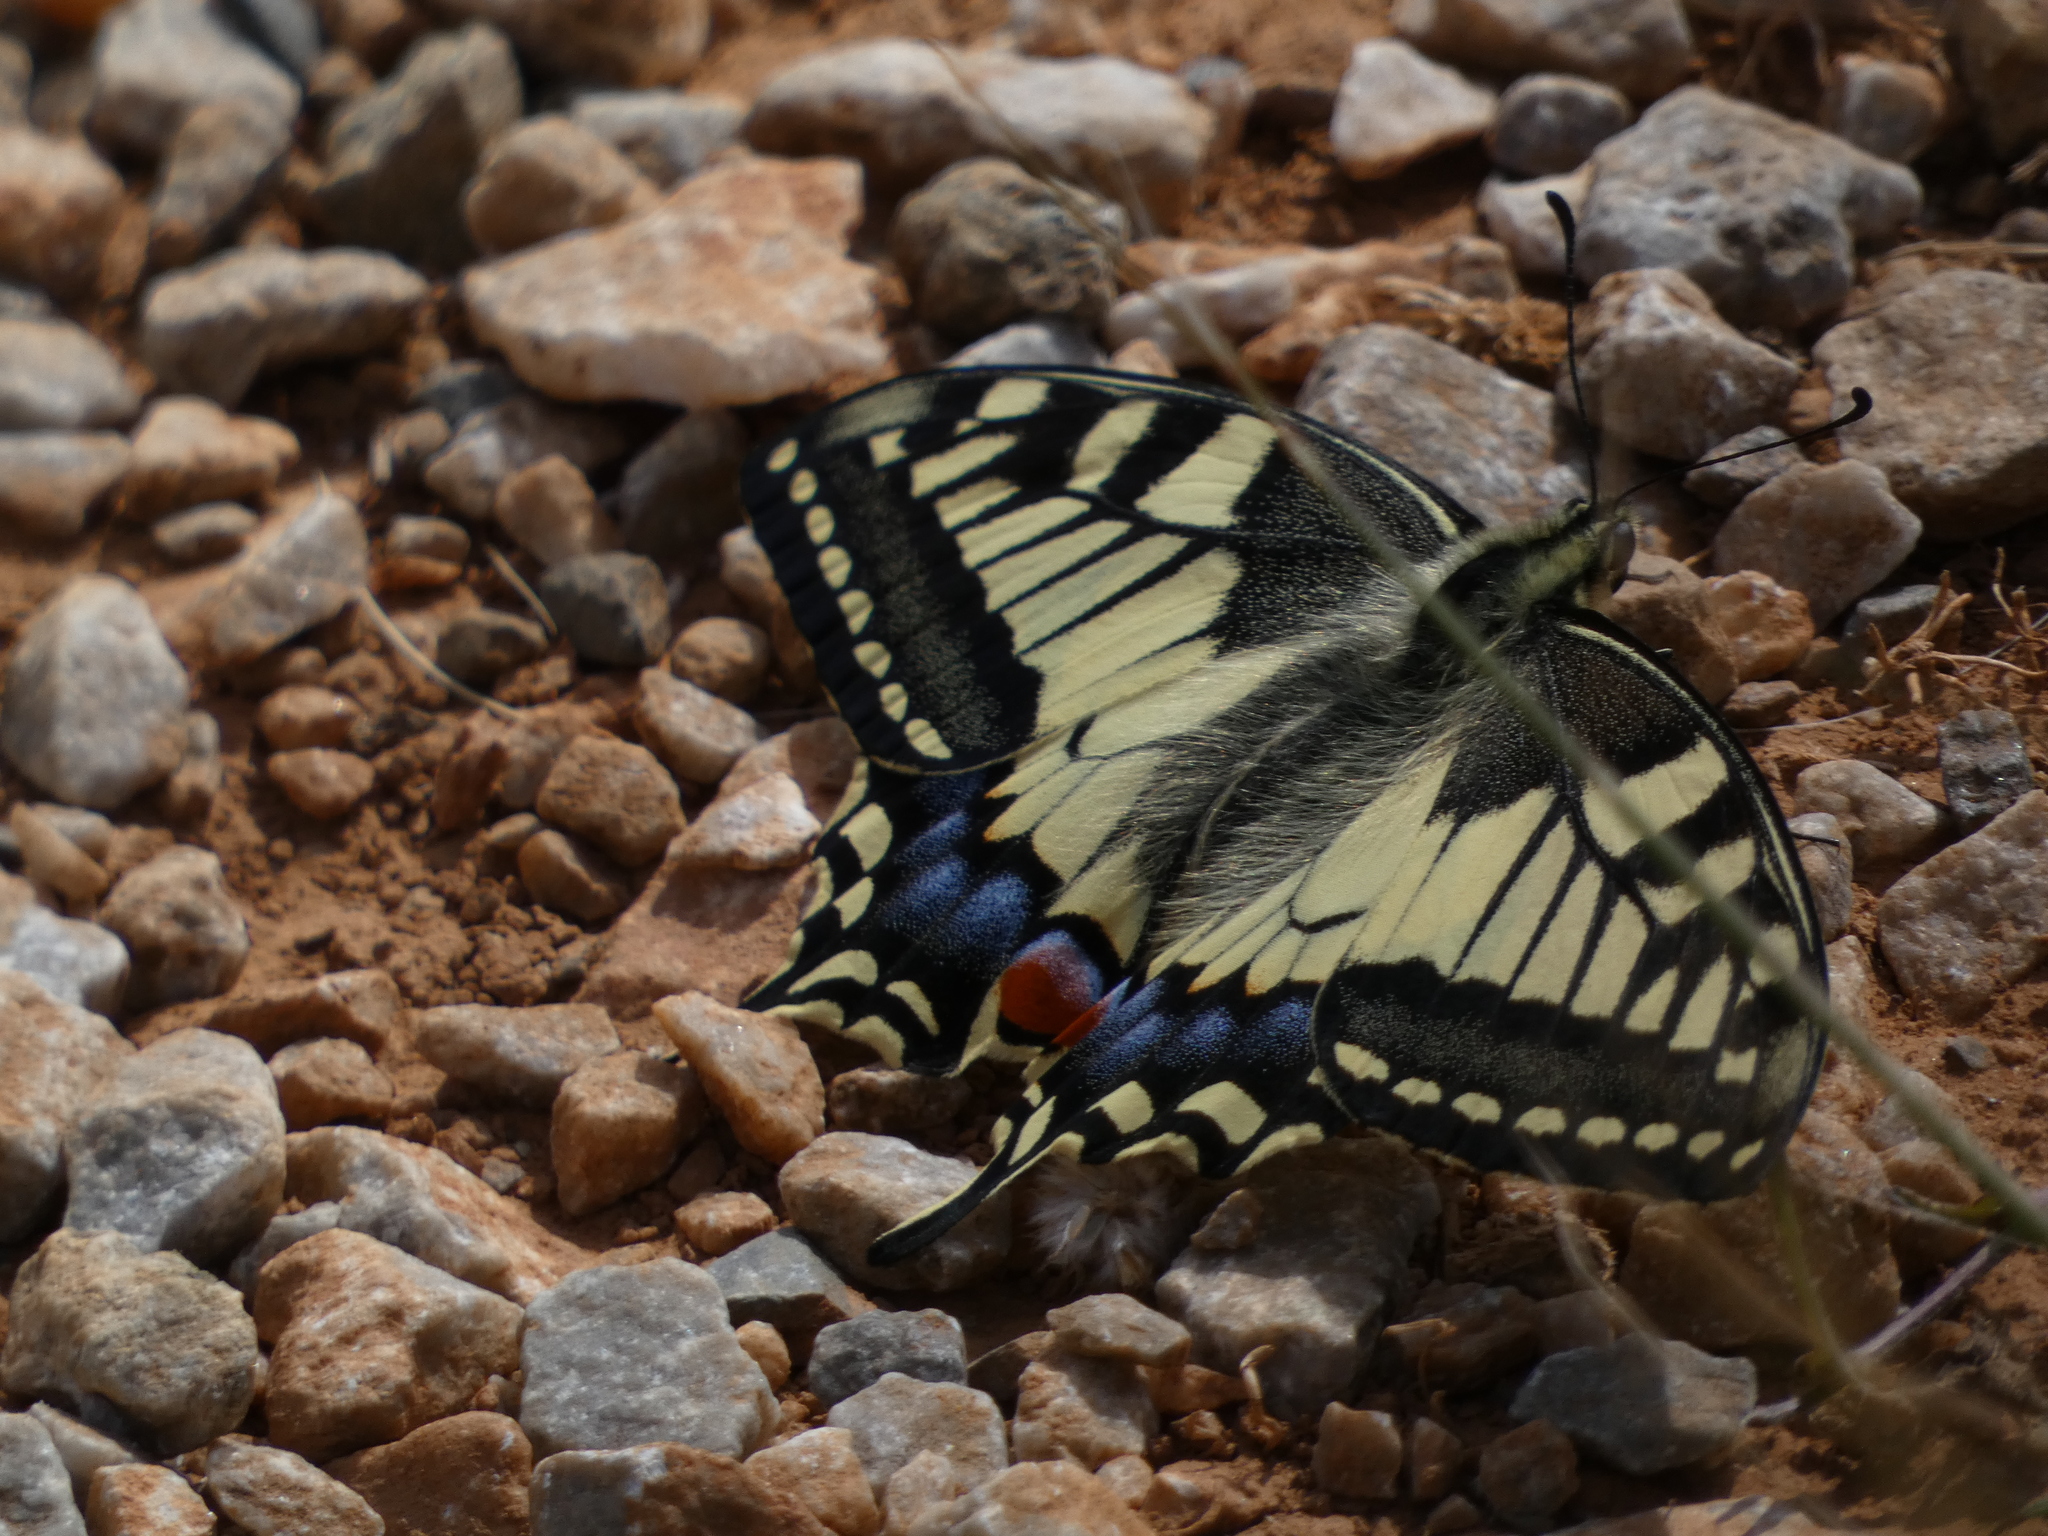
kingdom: Animalia
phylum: Arthropoda
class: Insecta
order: Lepidoptera
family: Papilionidae
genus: Papilio
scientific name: Papilio machaon
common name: Swallowtail
